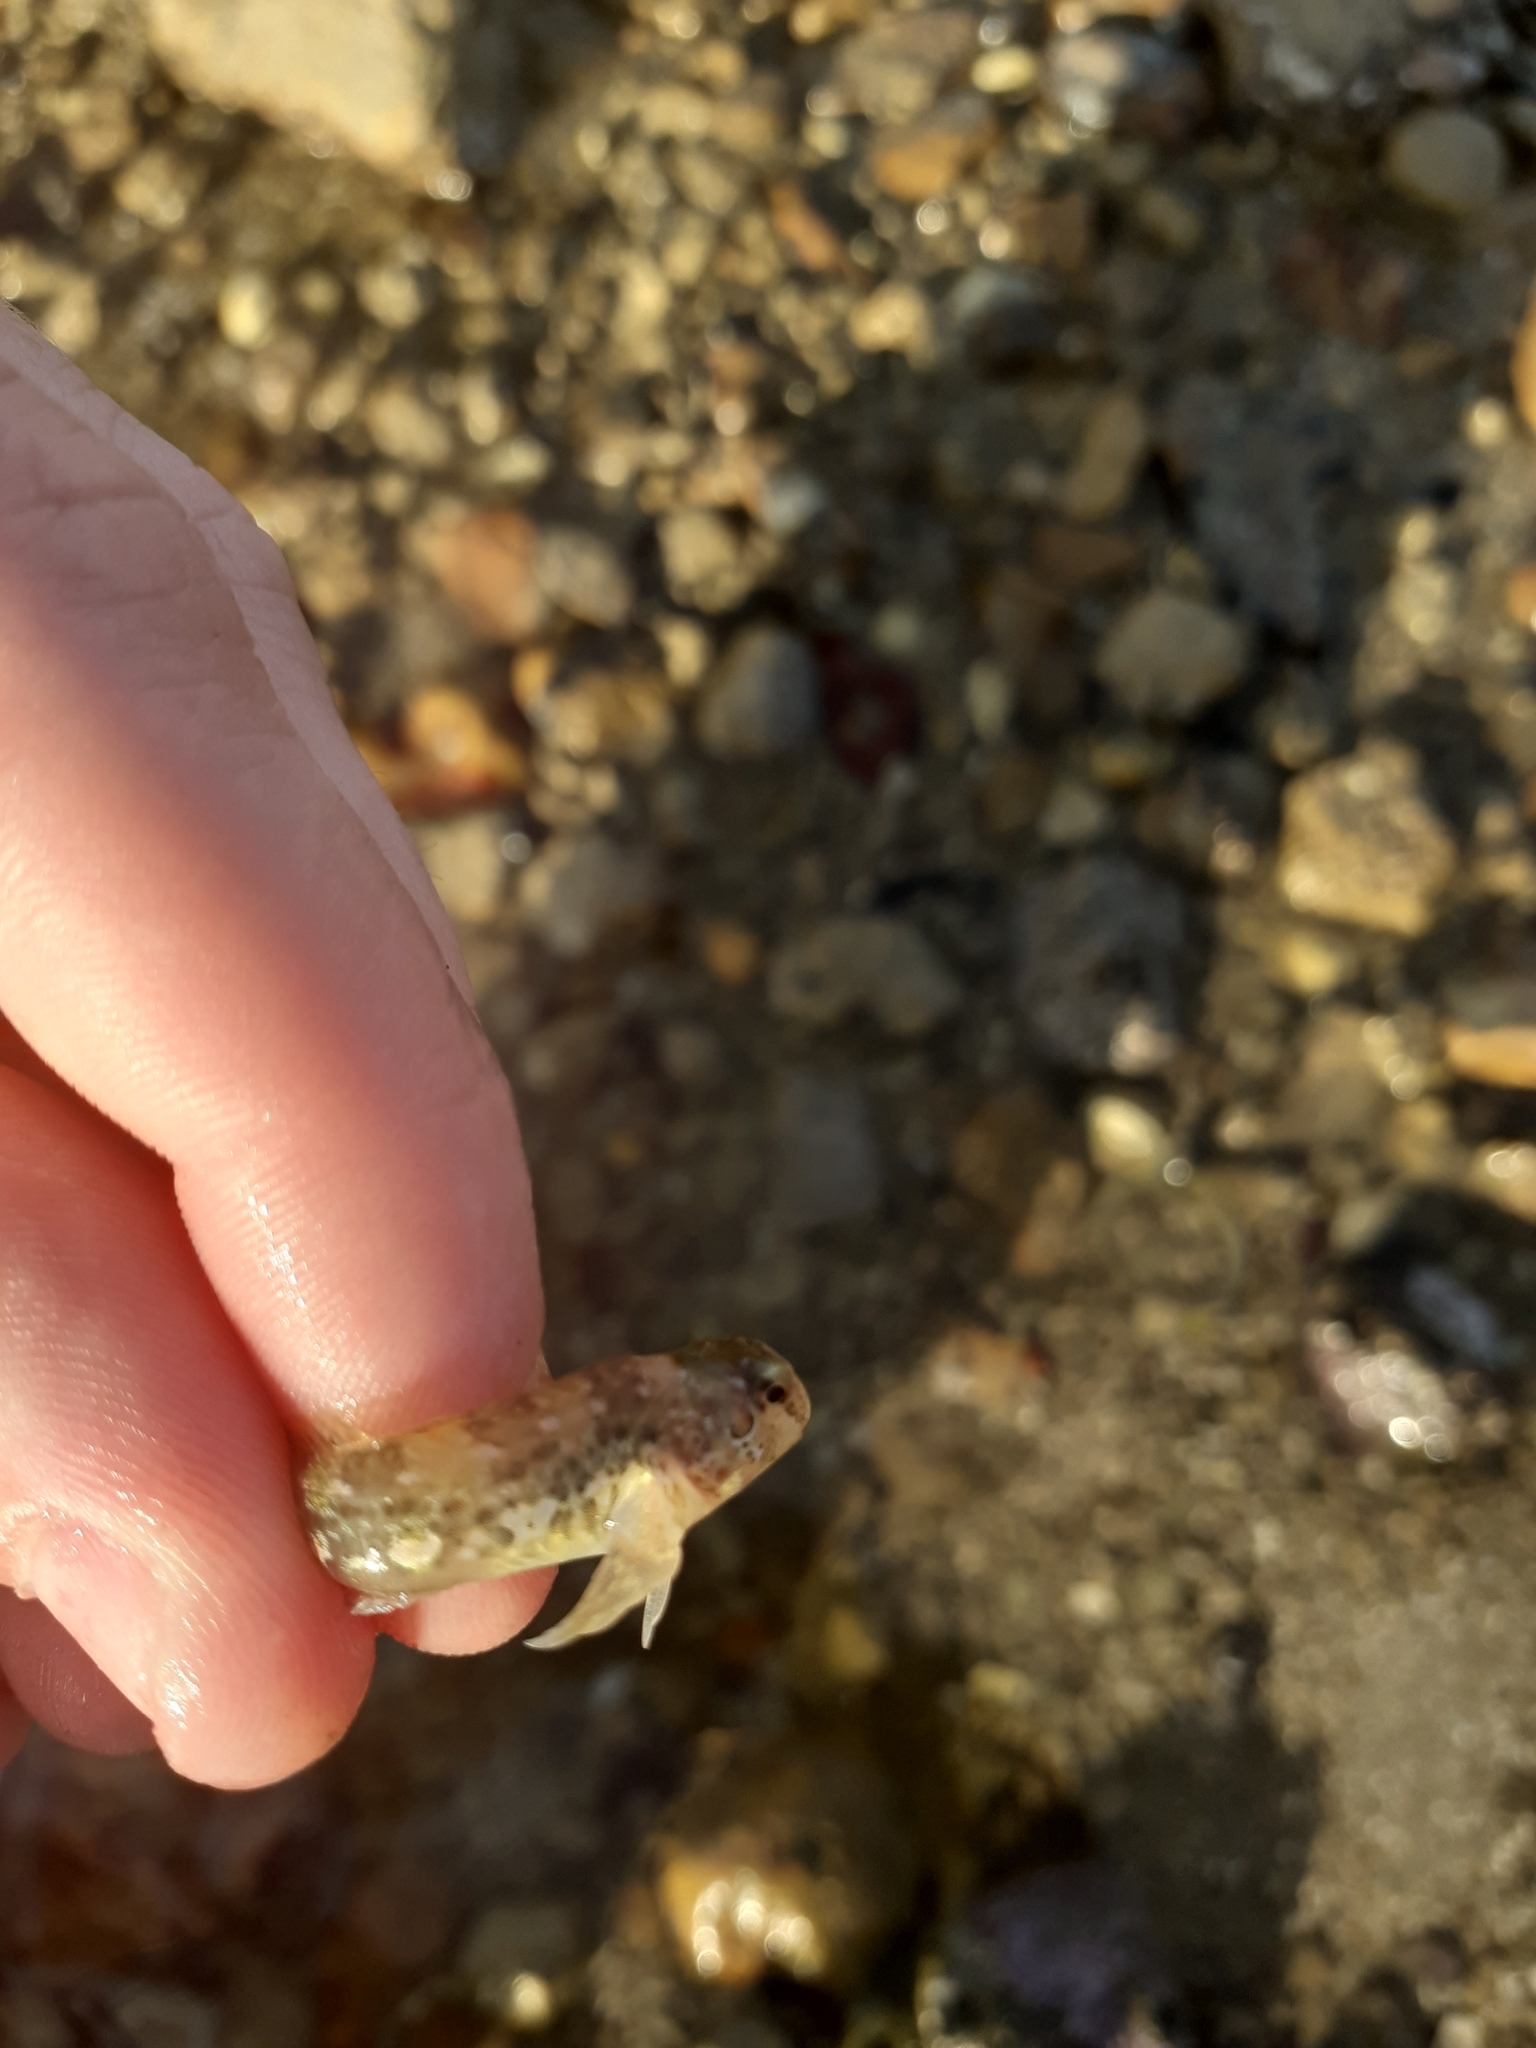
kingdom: Animalia
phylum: Chordata
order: Perciformes
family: Blenniidae
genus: Lipophrys
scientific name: Lipophrys pholis
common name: Shanny
